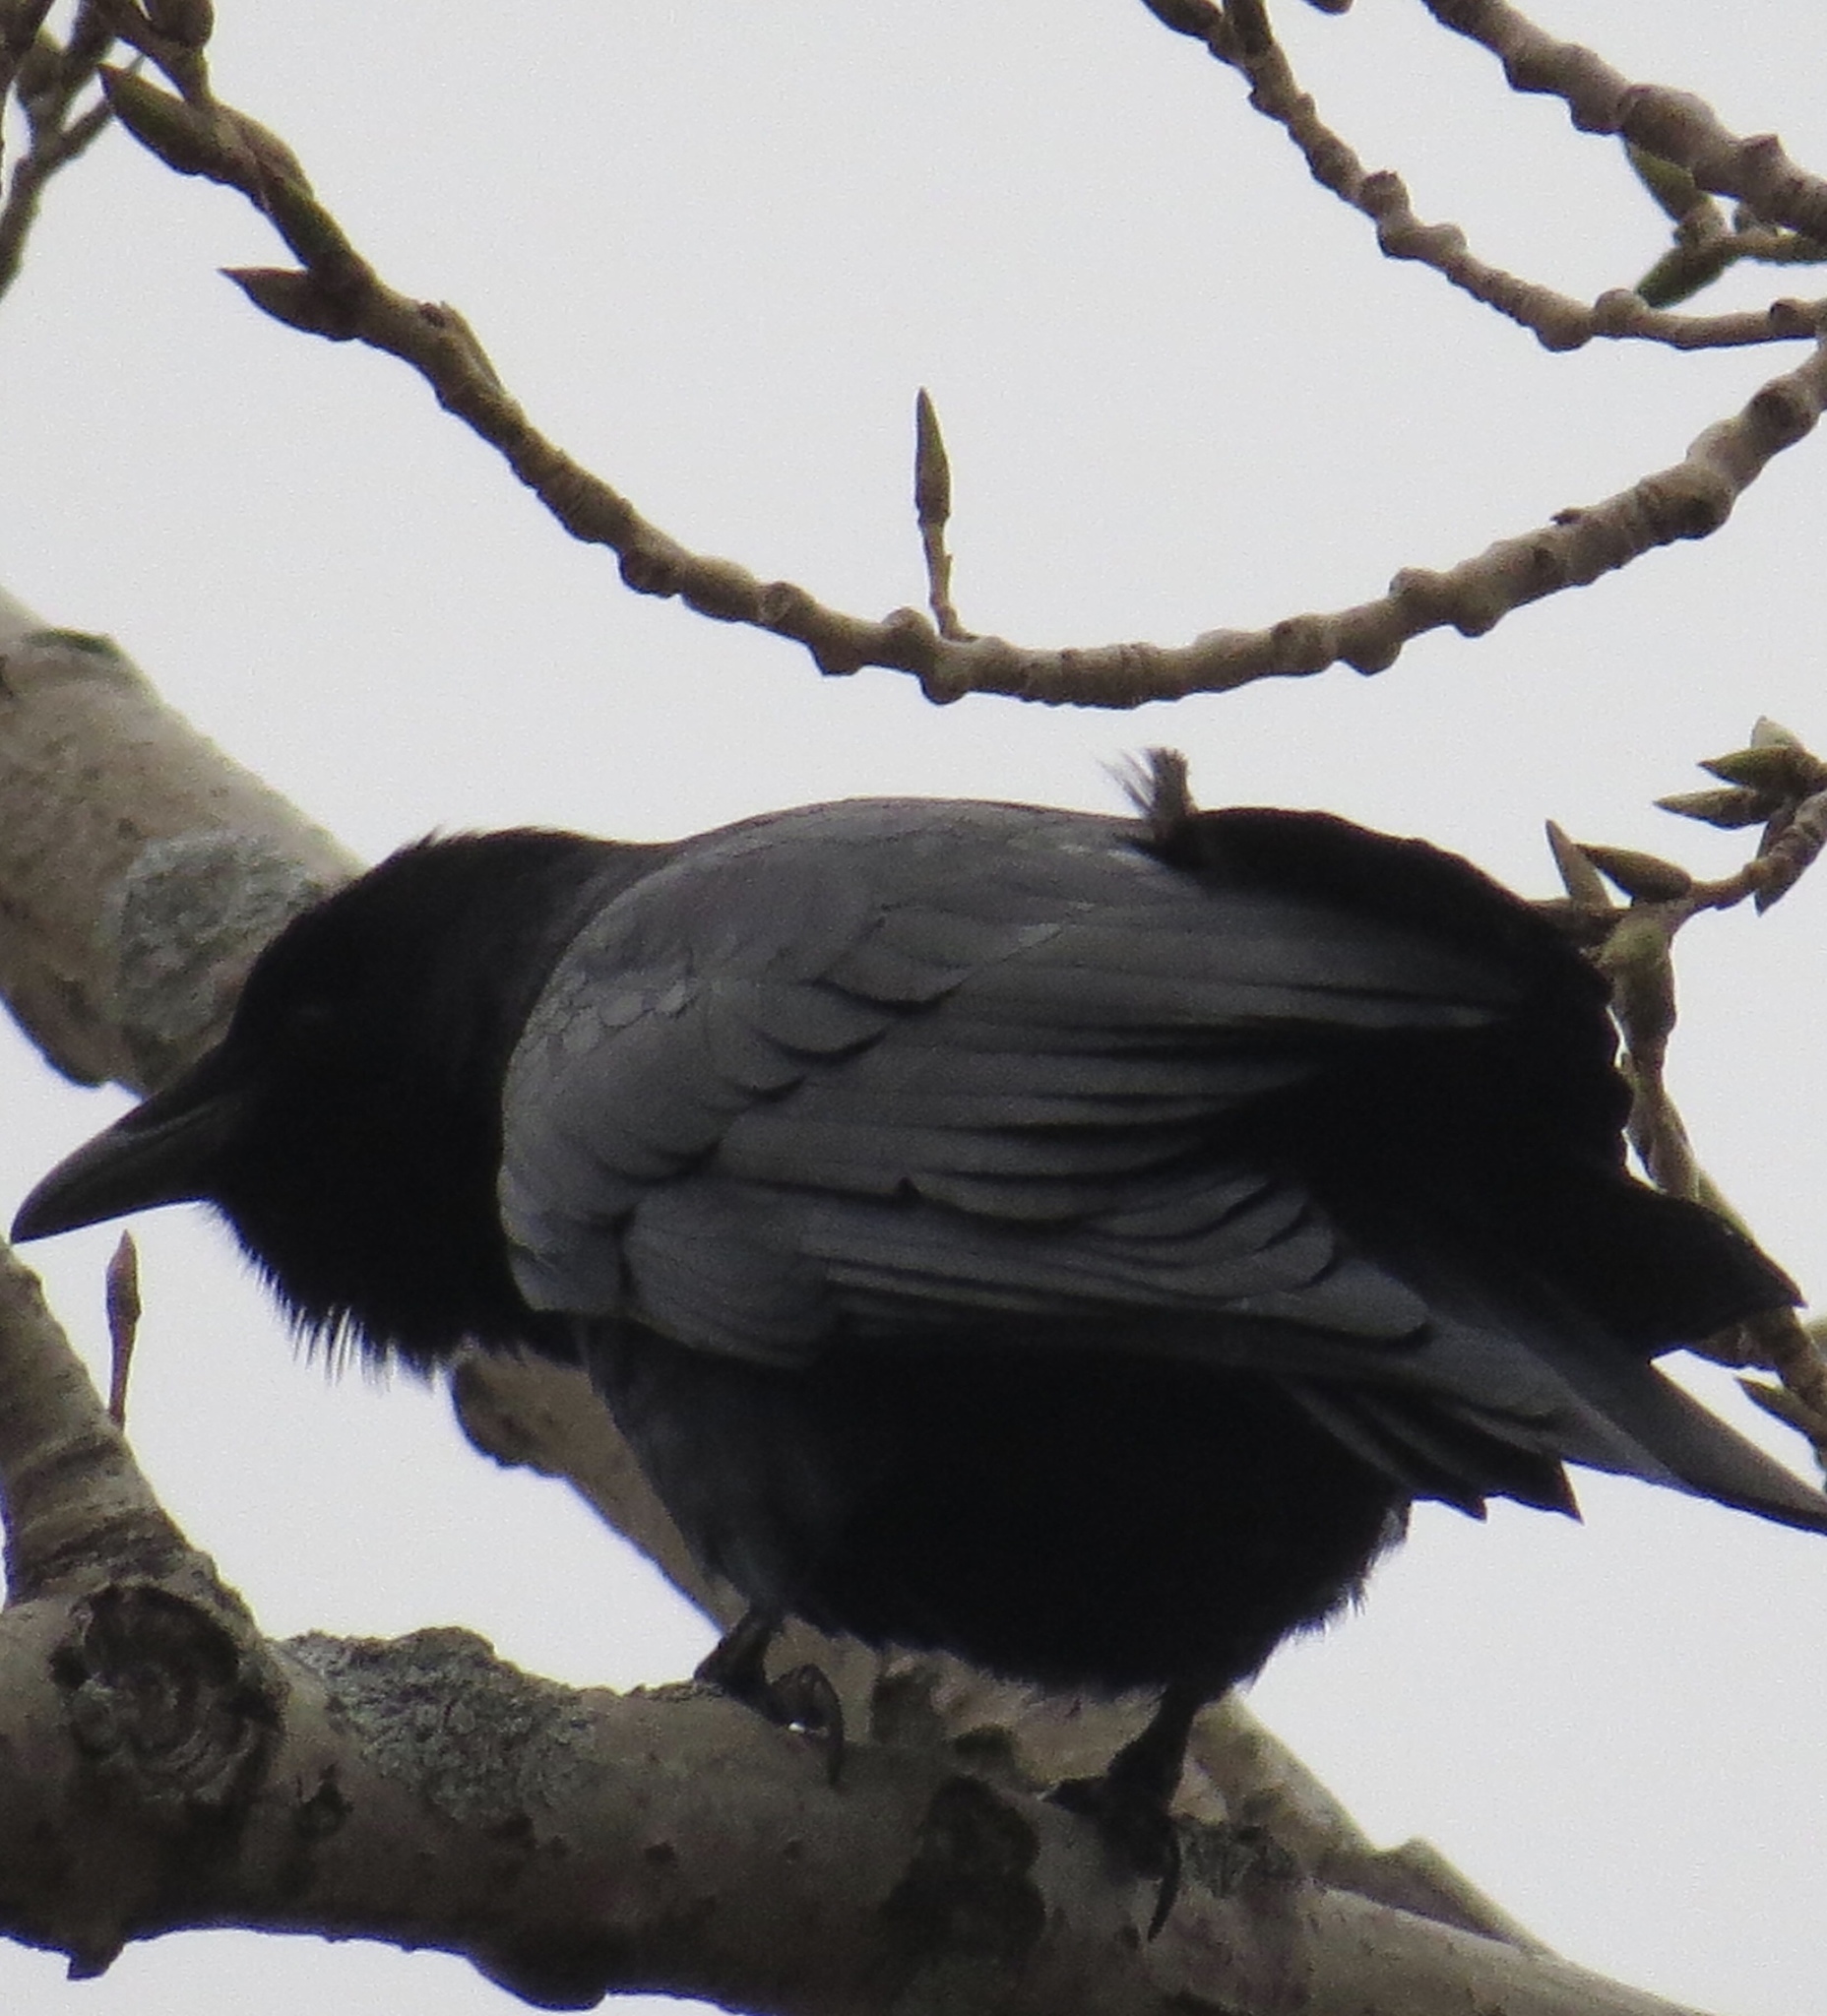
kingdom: Animalia
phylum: Chordata
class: Aves
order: Passeriformes
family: Corvidae
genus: Corvus
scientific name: Corvus brachyrhynchos
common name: American crow
